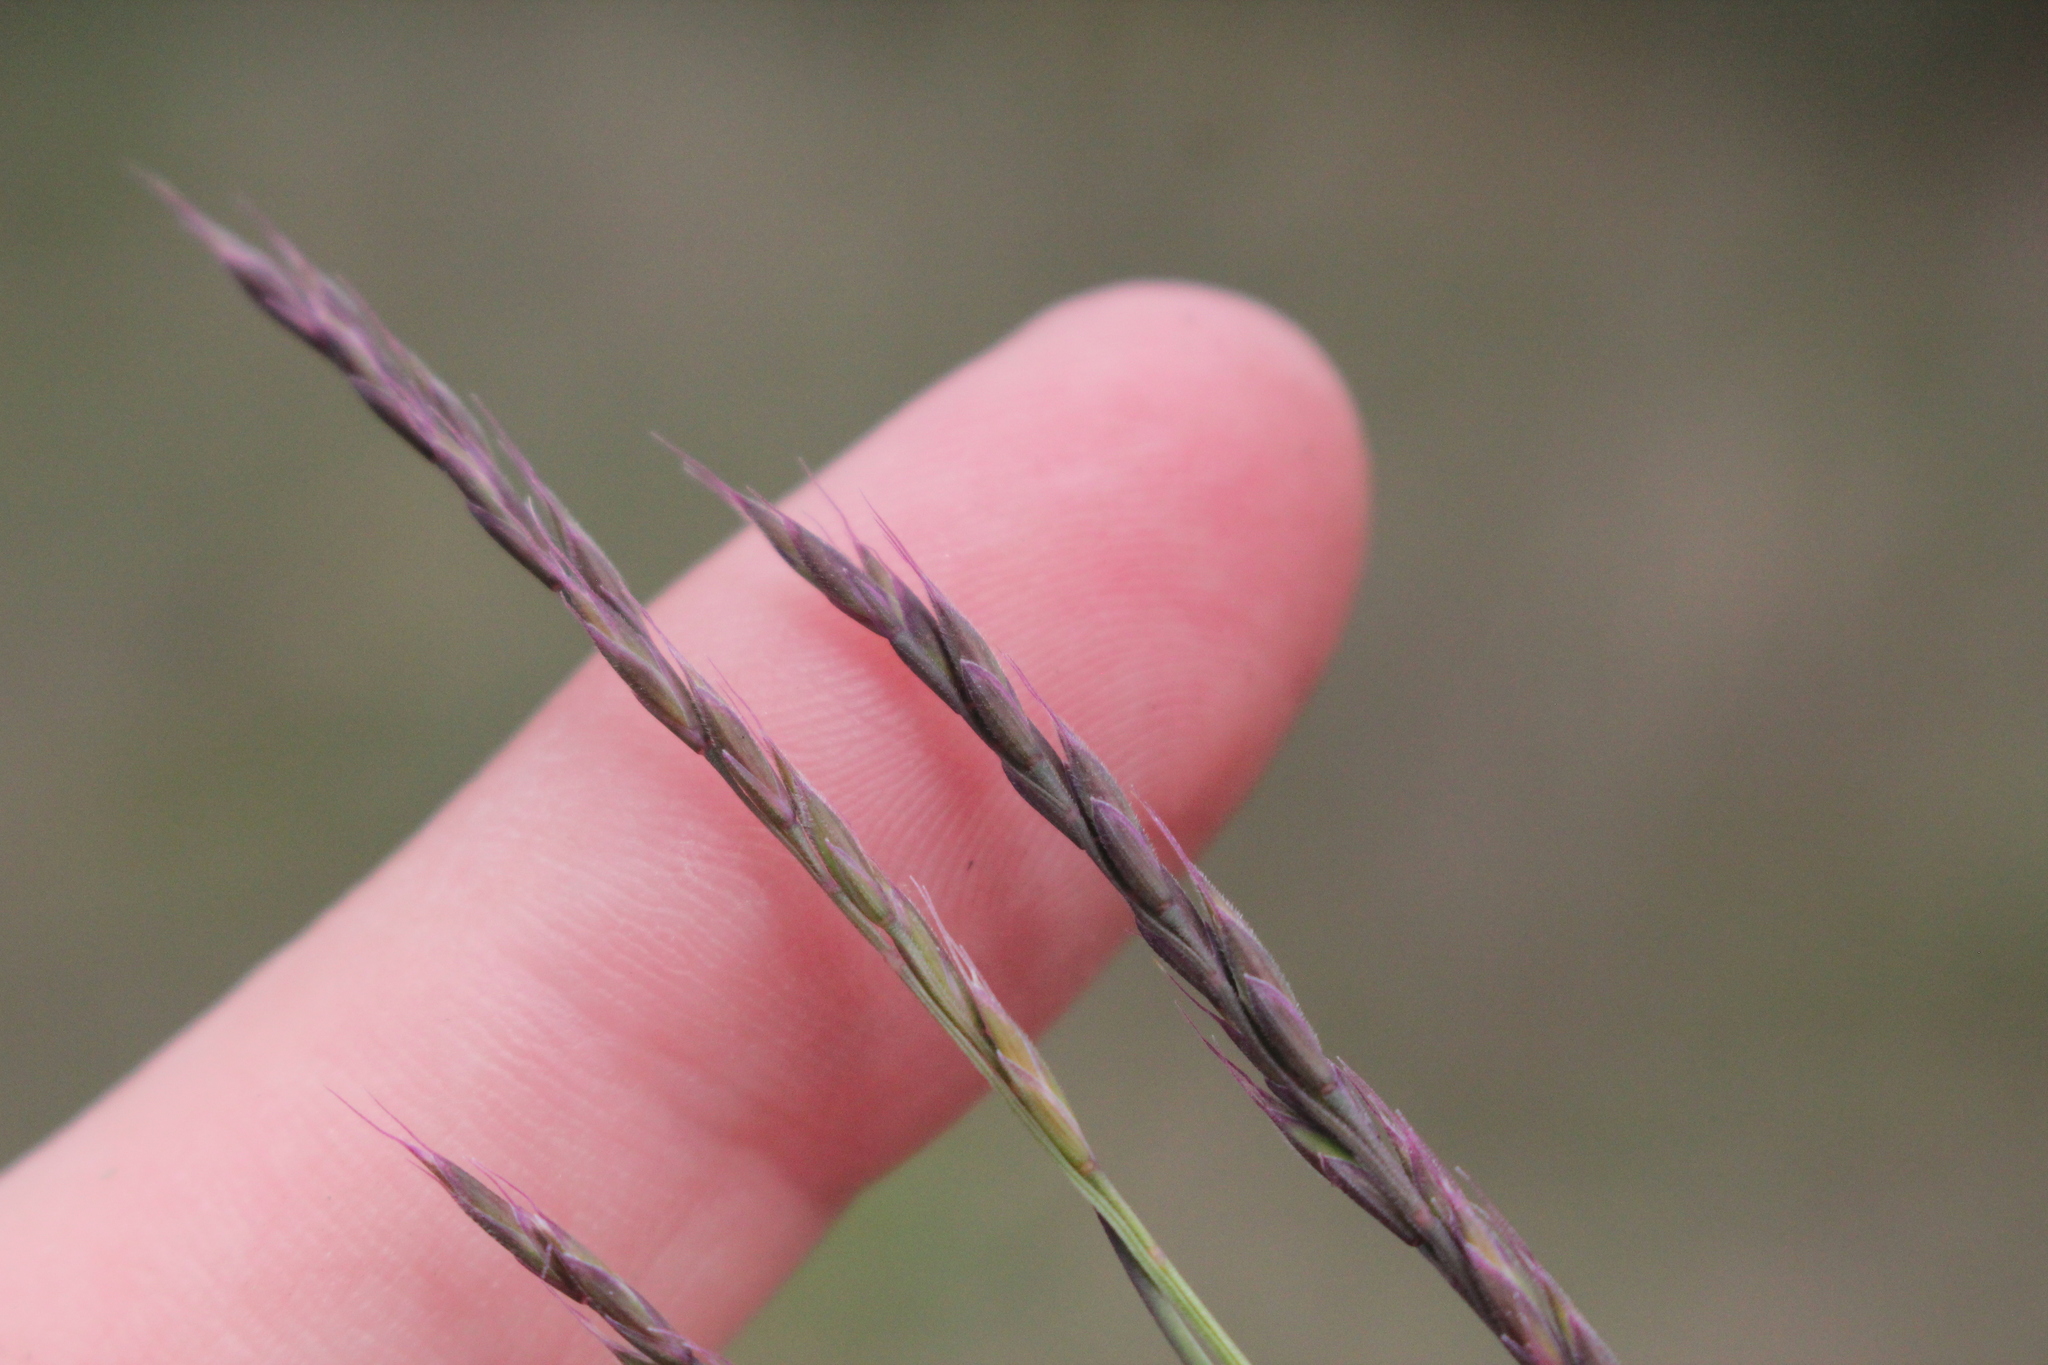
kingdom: Plantae
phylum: Tracheophyta
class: Liliopsida
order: Poales
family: Poaceae
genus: Festuca
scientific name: Festuca rubra
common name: Red fescue
